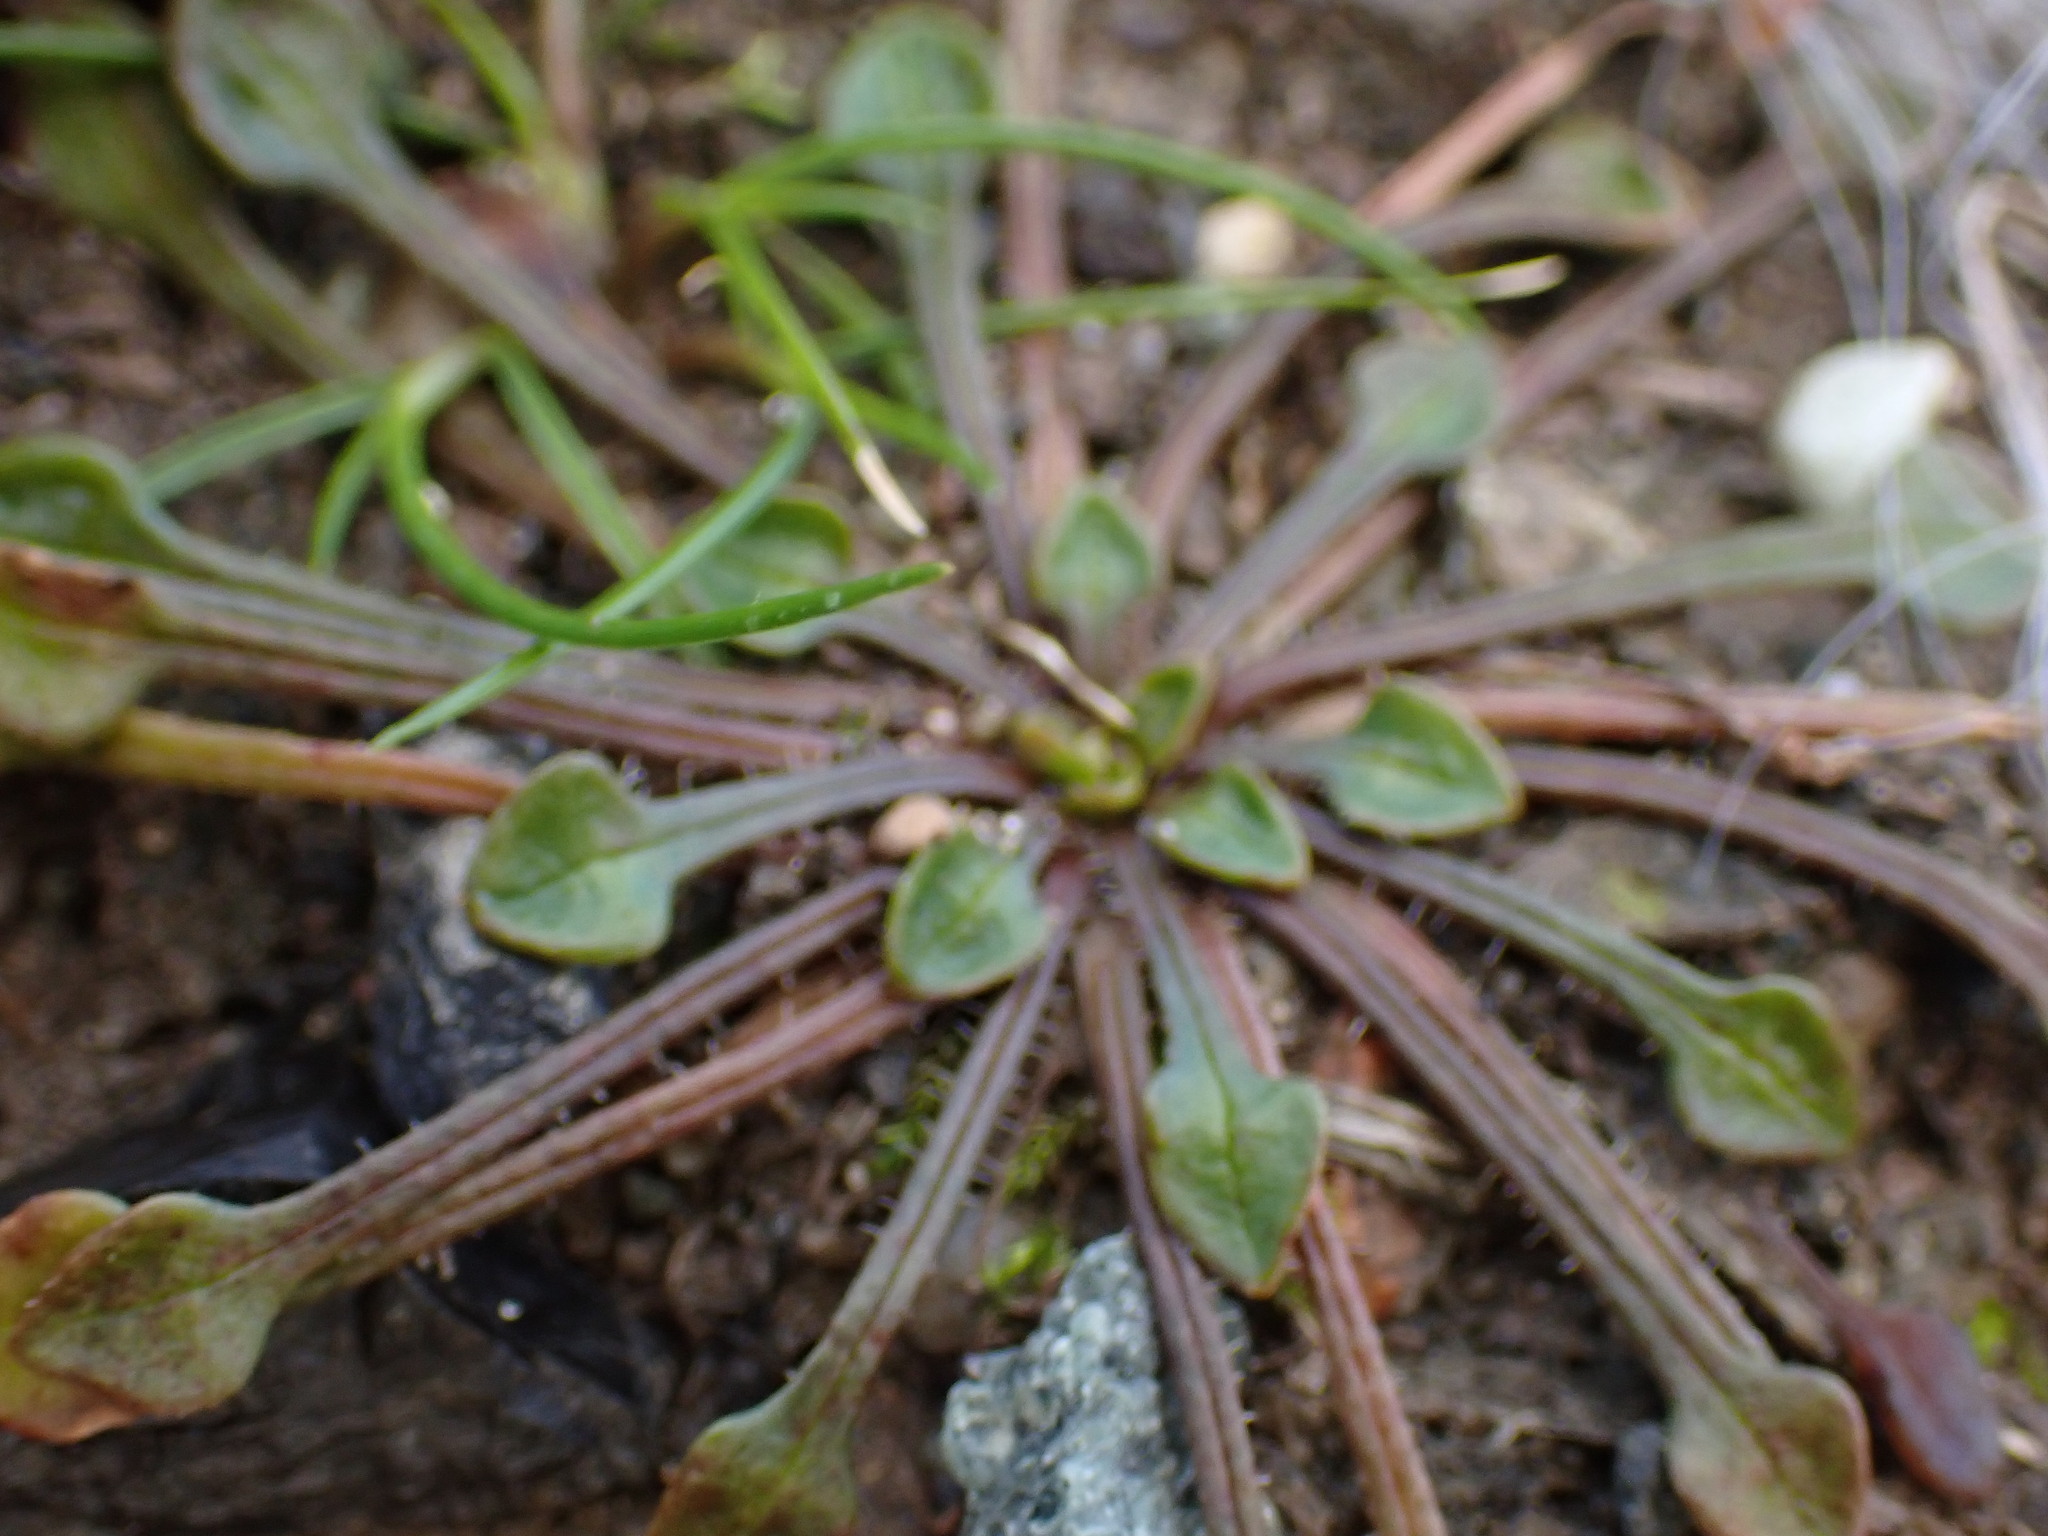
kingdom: Plantae
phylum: Tracheophyta
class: Magnoliopsida
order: Caryophyllales
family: Montiaceae
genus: Calandrinia
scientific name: Calandrinia menziesii
